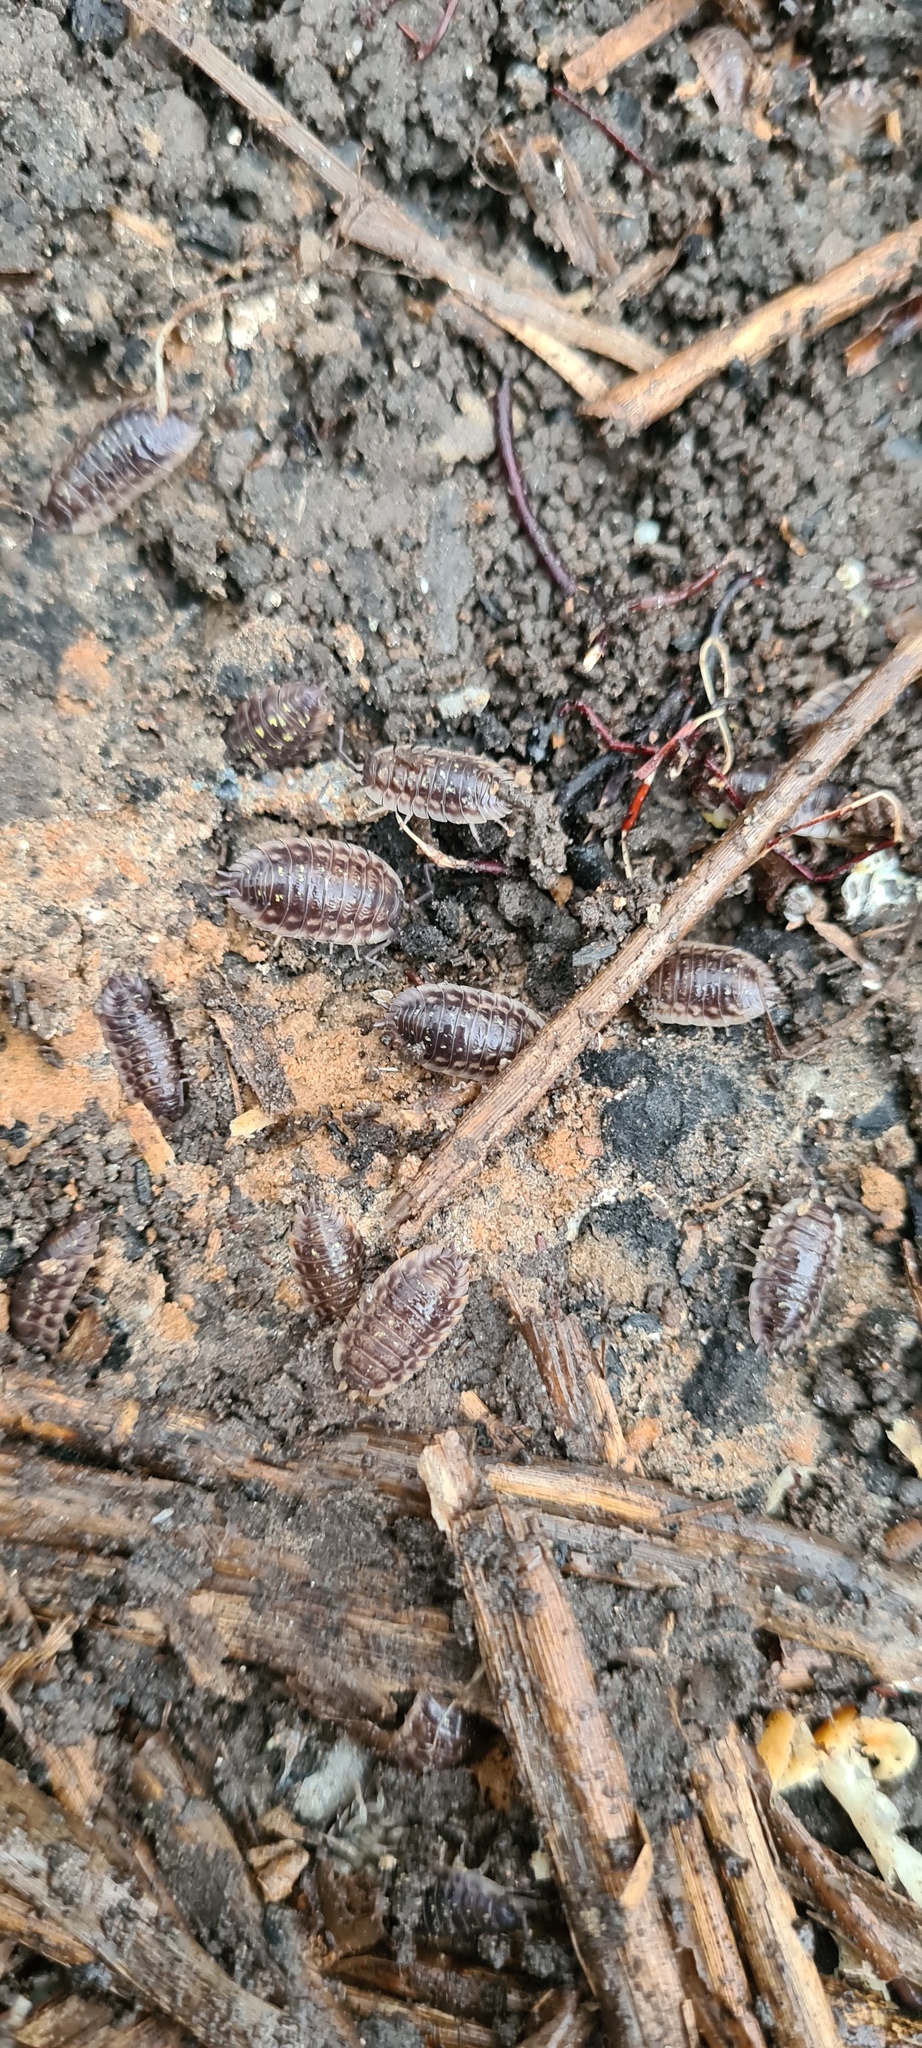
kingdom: Animalia
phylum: Arthropoda
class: Malacostraca
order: Isopoda
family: Oniscidae
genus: Oniscus
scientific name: Oniscus asellus
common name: Common shiny woodlouse
